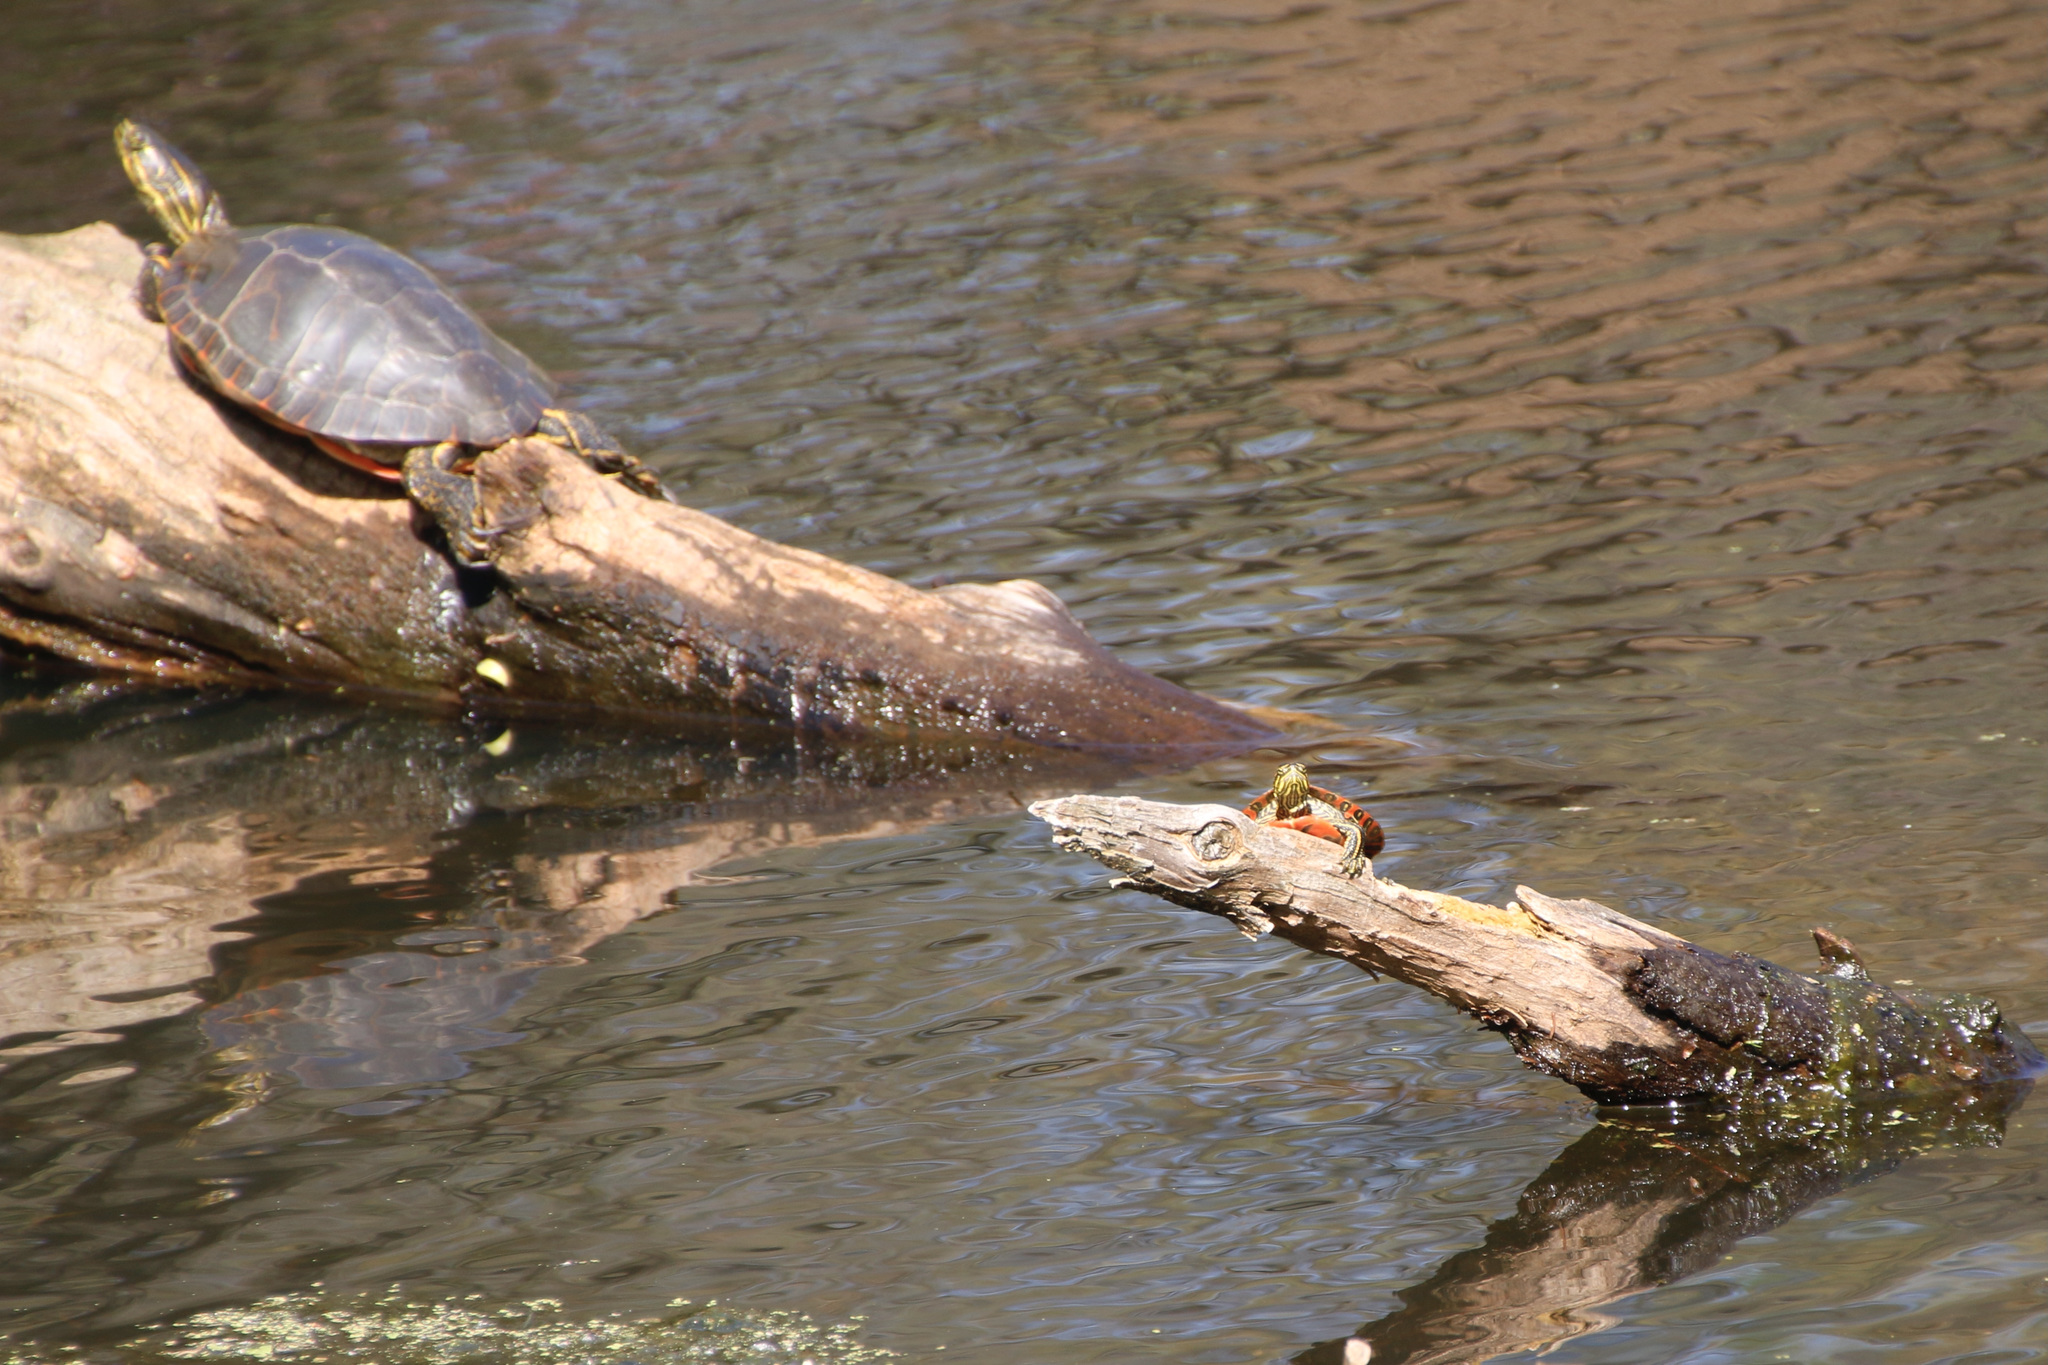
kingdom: Animalia
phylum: Chordata
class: Testudines
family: Emydidae
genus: Chrysemys
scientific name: Chrysemys picta
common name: Painted turtle
